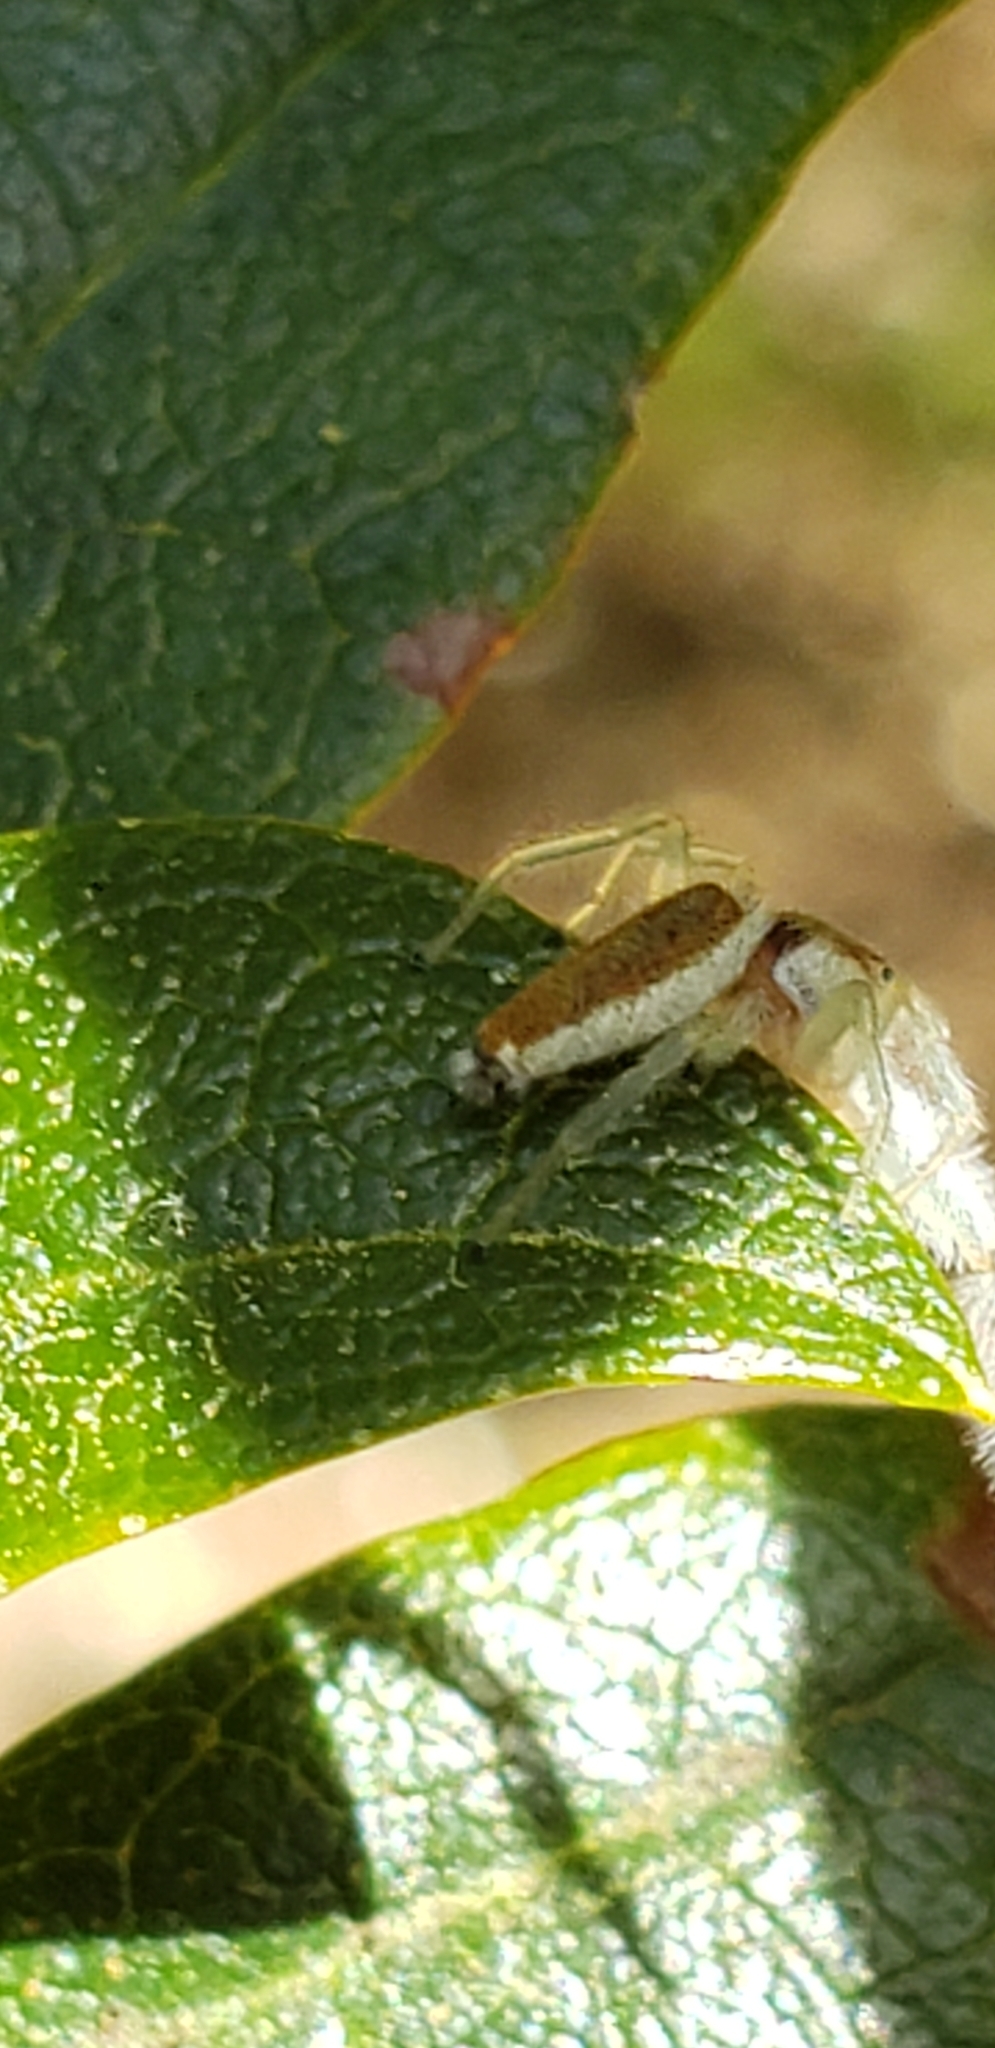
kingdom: Animalia
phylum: Arthropoda
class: Arachnida
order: Araneae
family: Salticidae
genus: Hentzia
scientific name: Hentzia mitrata
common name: White-jawed jumping spider
